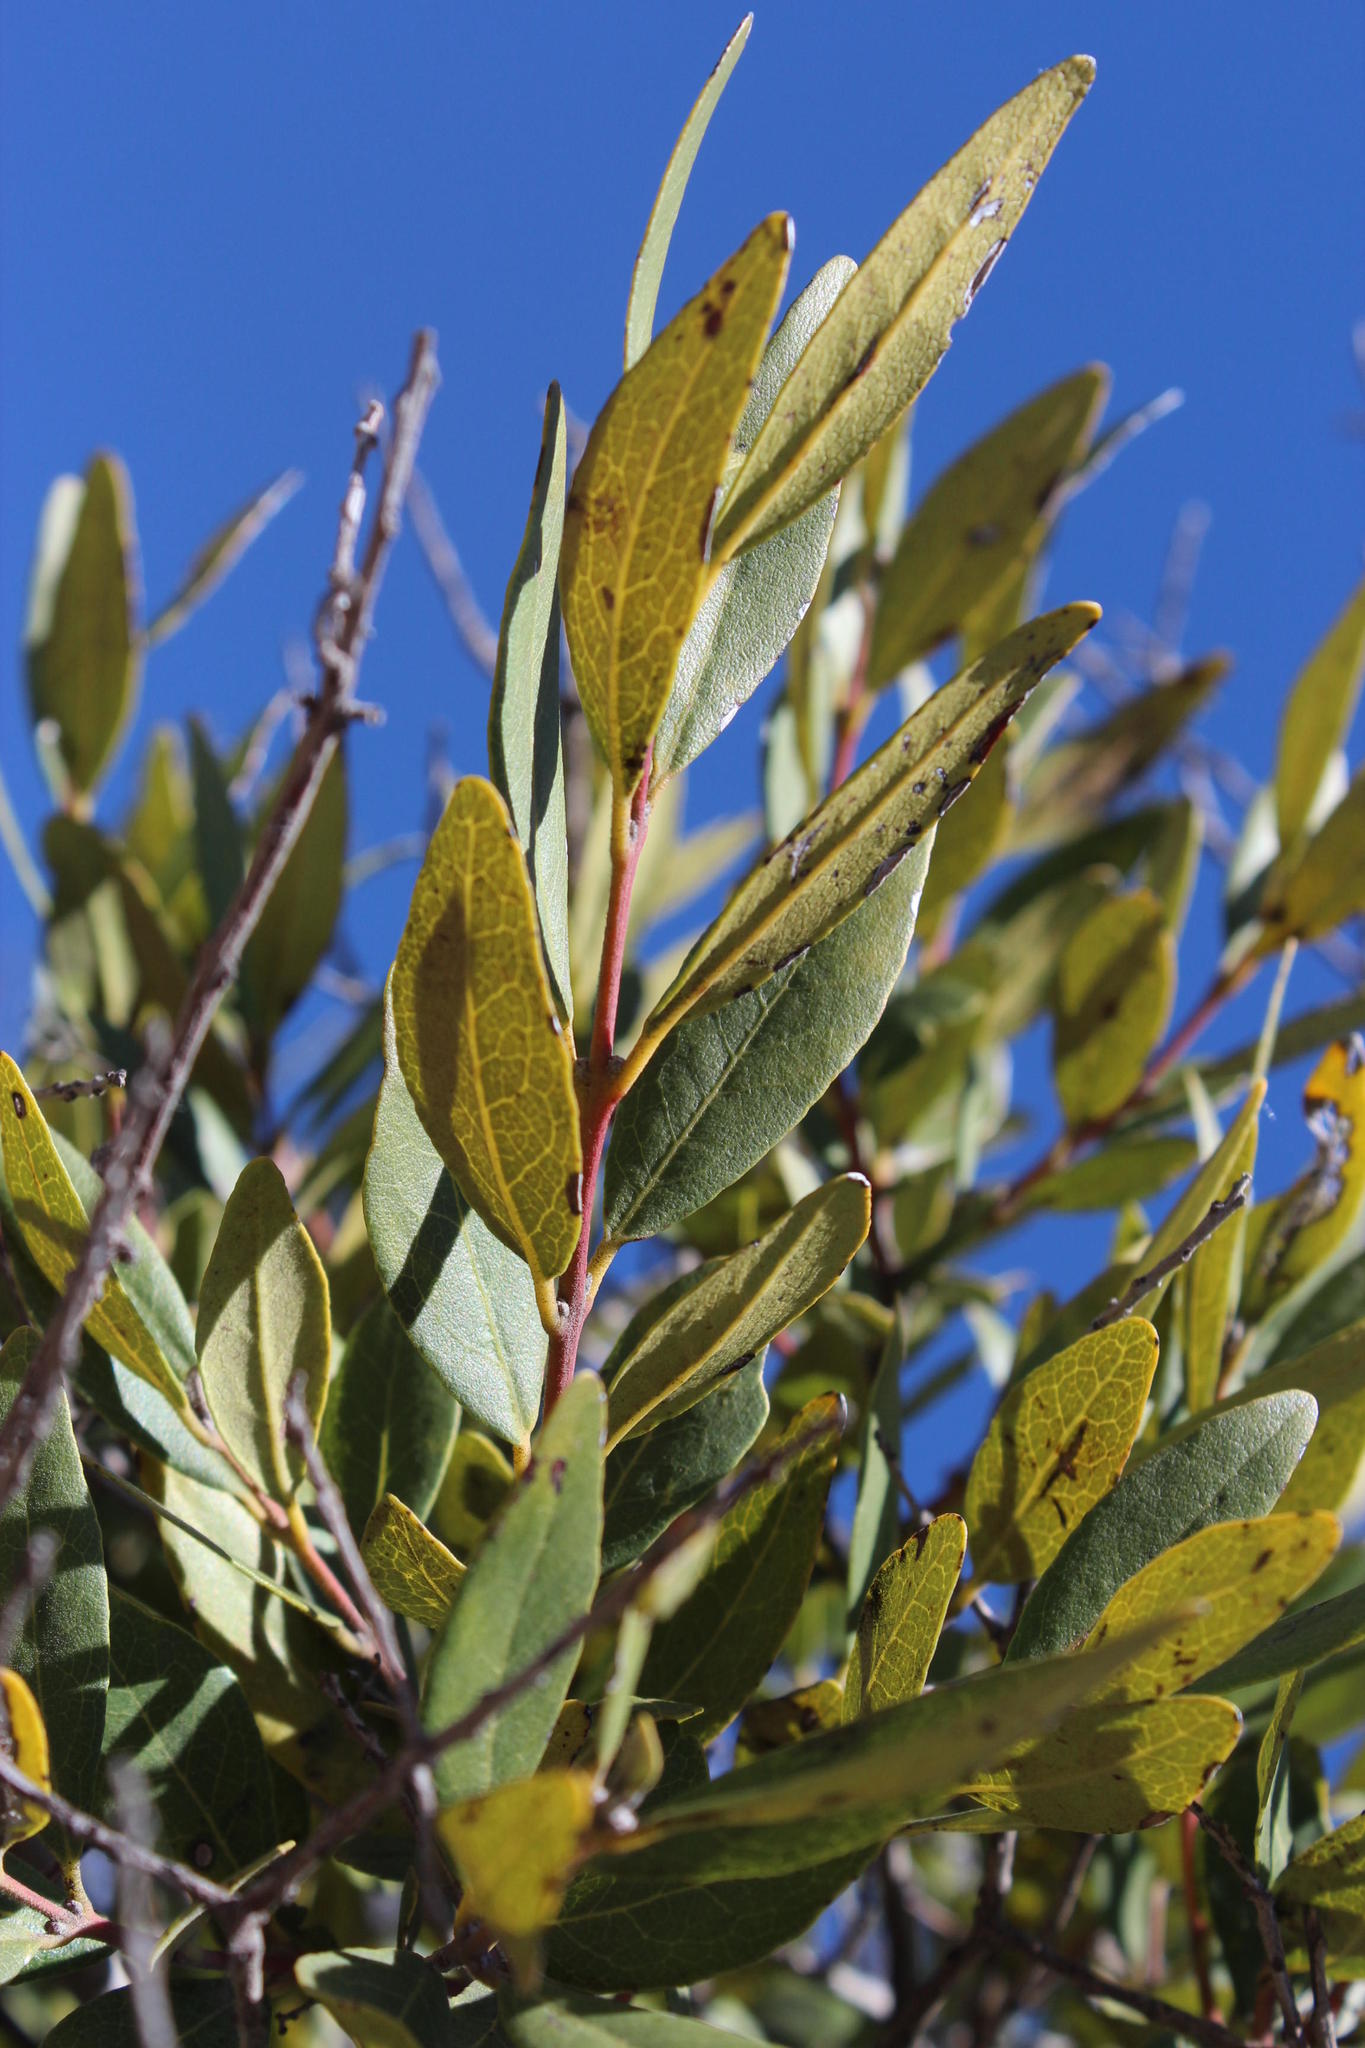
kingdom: Plantae
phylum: Tracheophyta
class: Magnoliopsida
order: Ericales
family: Ebenaceae
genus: Euclea
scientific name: Euclea crispa
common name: Blue guarri
